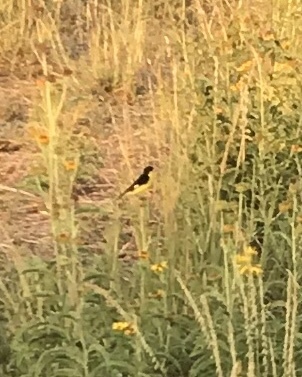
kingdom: Animalia
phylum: Chordata
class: Aves
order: Passeriformes
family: Fringillidae
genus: Spinus
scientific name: Spinus psaltria
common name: Lesser goldfinch
